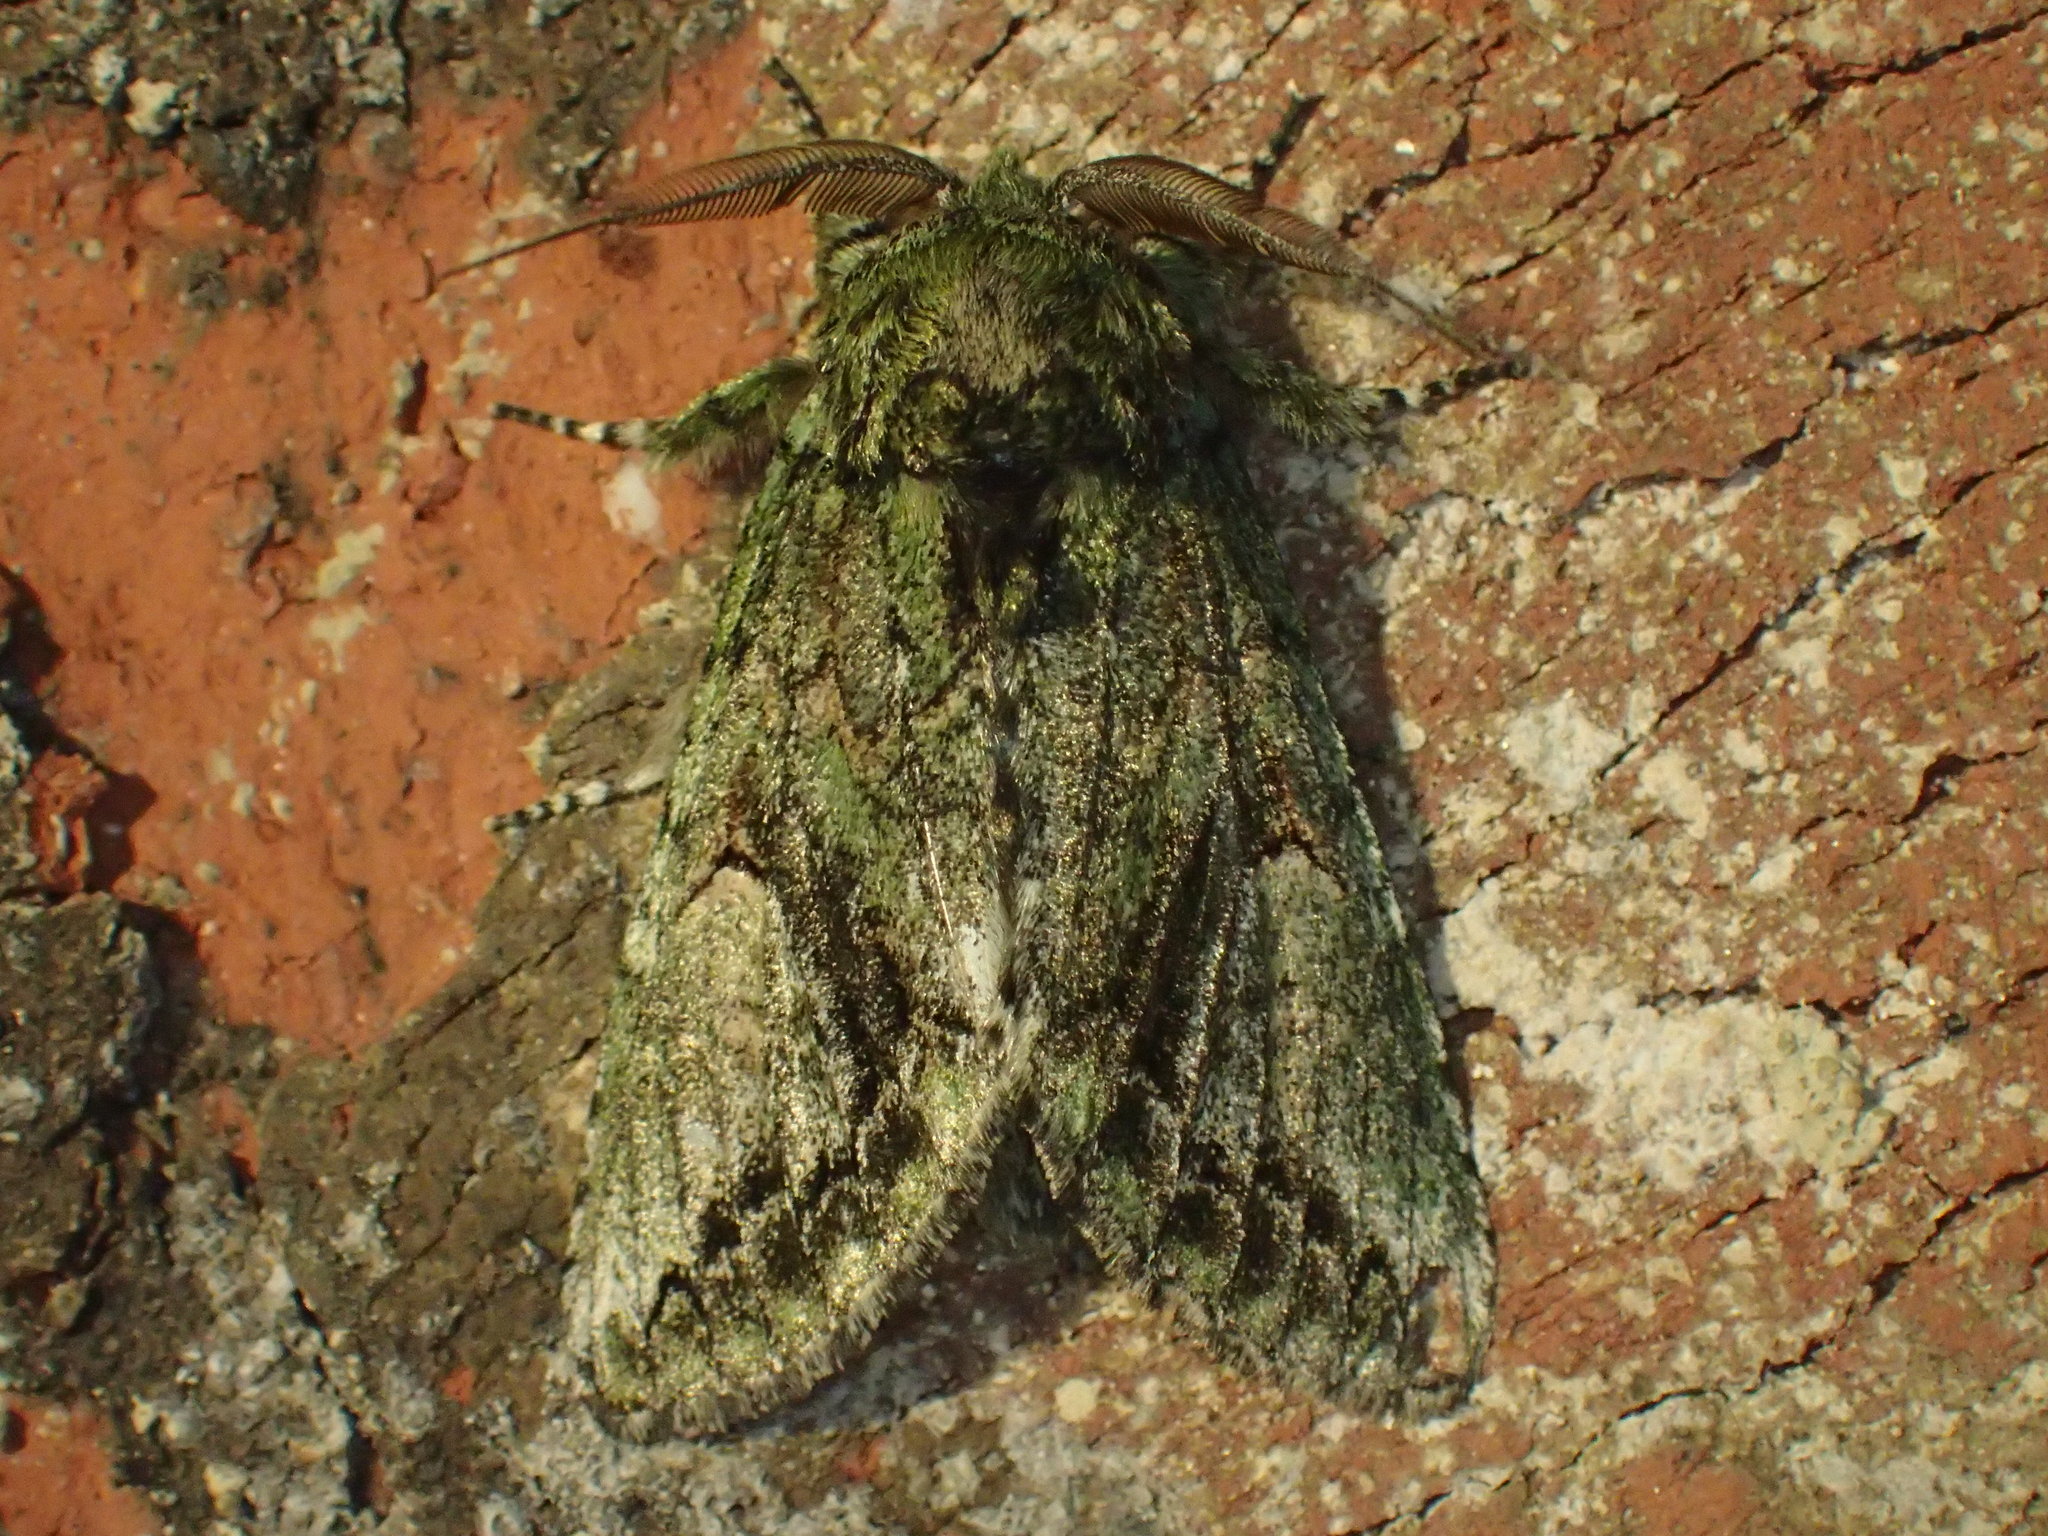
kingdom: Animalia
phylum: Arthropoda
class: Insecta
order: Lepidoptera
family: Notodontidae
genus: Heterocampa
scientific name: Heterocampa
